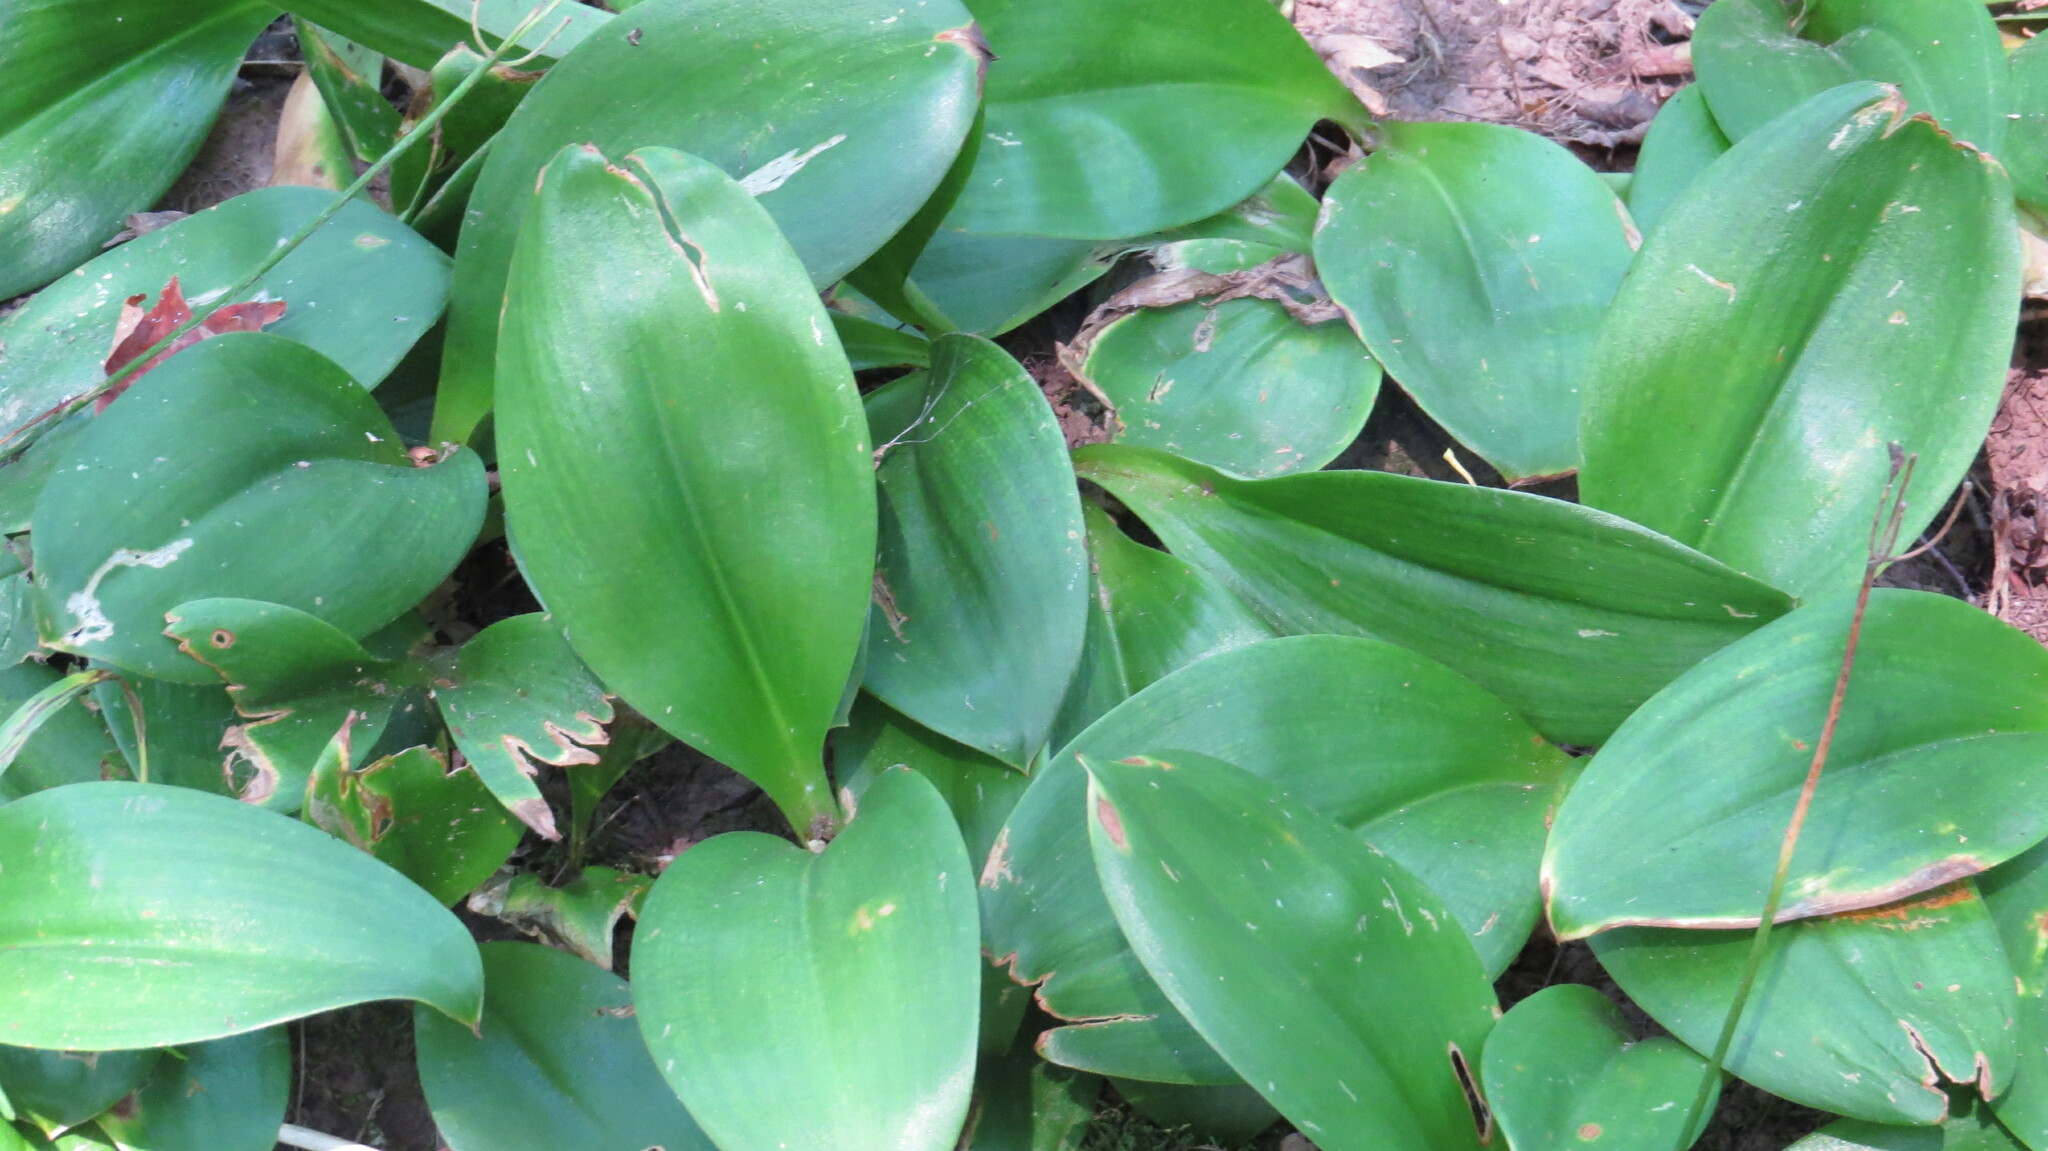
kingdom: Plantae
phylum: Tracheophyta
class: Liliopsida
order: Liliales
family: Liliaceae
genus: Clintonia
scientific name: Clintonia borealis
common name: Yellow clintonia
